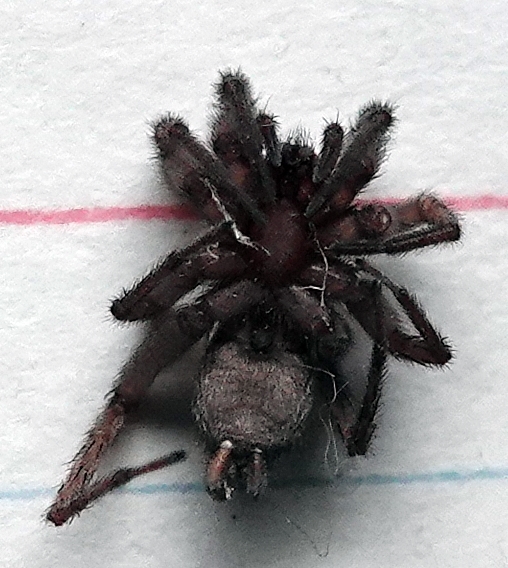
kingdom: Animalia
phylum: Arthropoda
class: Arachnida
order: Araneae
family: Gnaphosidae
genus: Herpyllus
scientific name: Herpyllus ecclesiasticus
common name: Eastern parson spider
